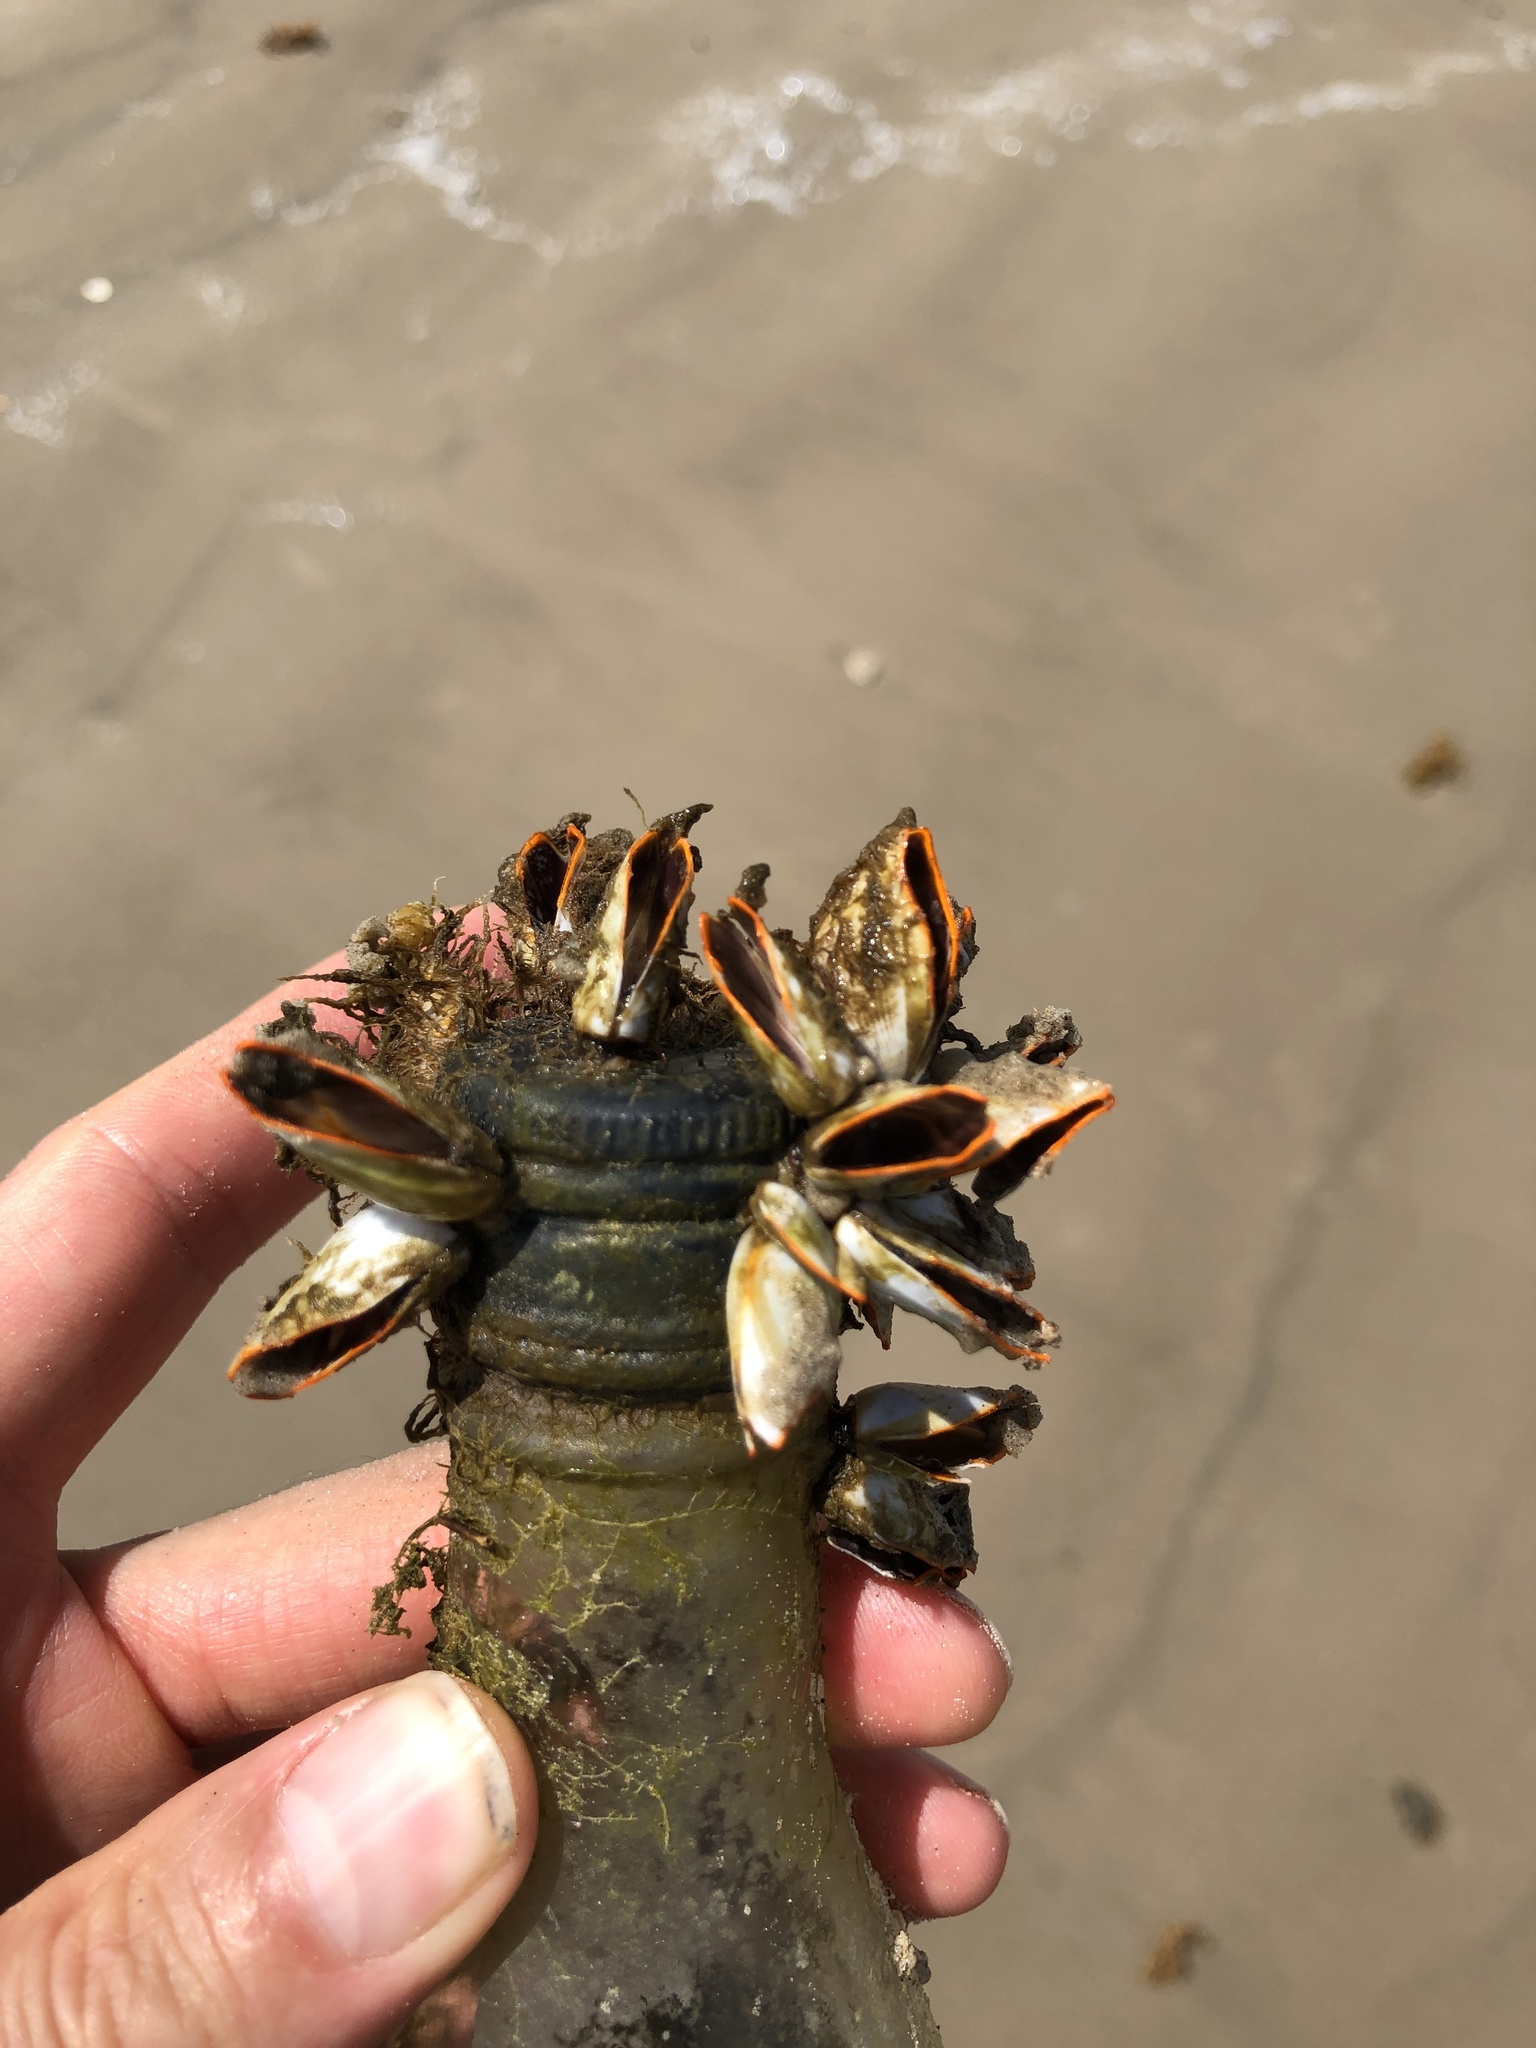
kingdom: Animalia
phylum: Arthropoda
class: Maxillopoda
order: Pedunculata
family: Lepadidae
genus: Lepas
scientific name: Lepas anserifera
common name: Goose barnacle
